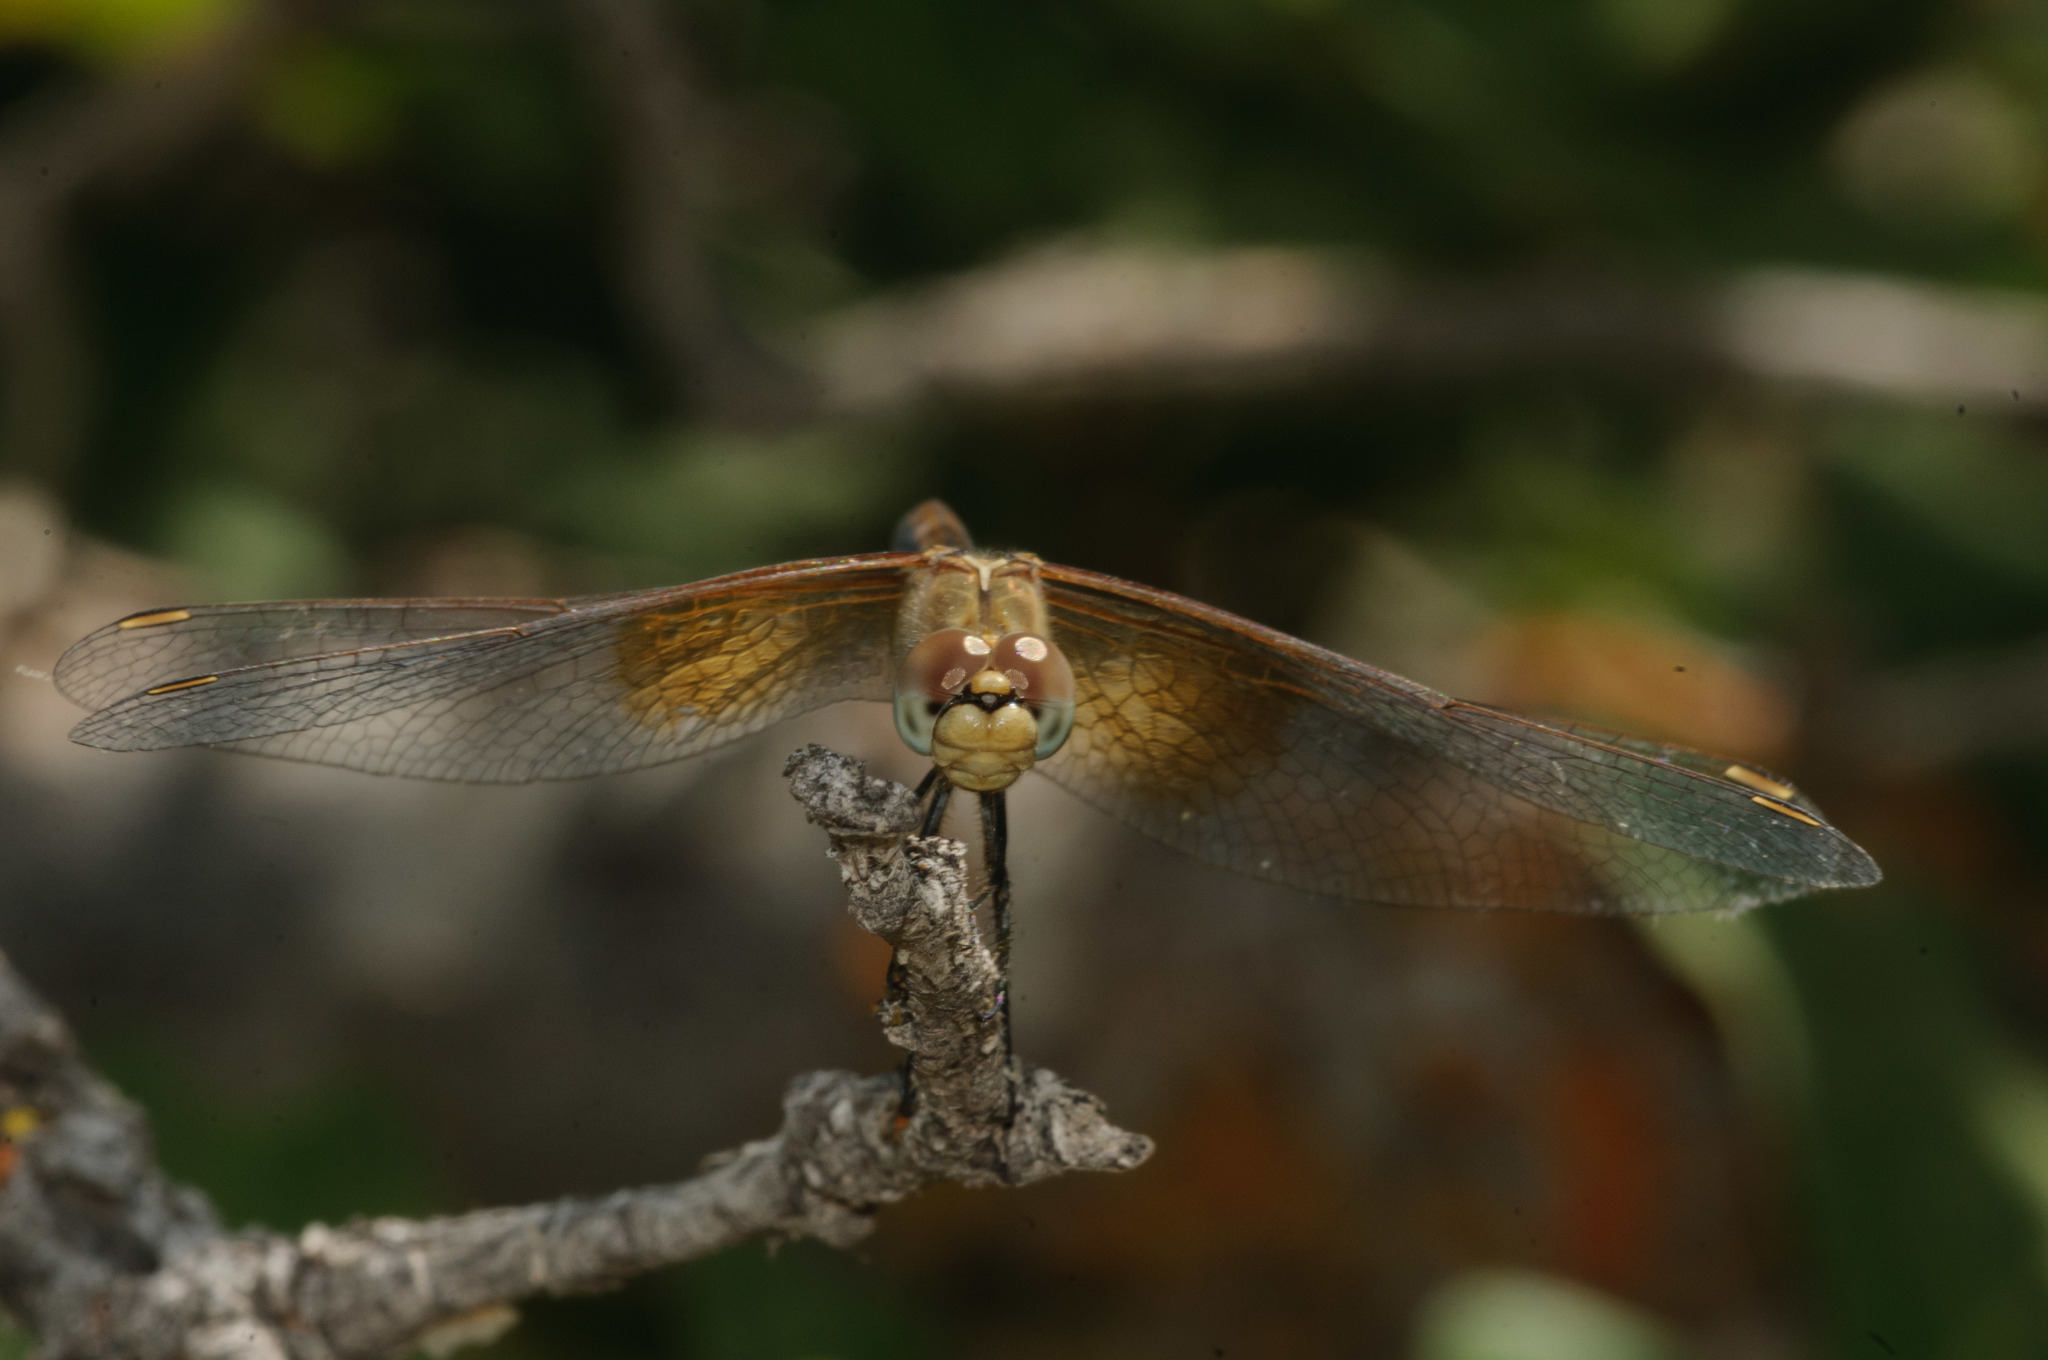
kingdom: Animalia
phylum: Arthropoda
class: Insecta
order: Odonata
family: Libellulidae
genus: Sympetrum
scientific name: Sympetrum semicinctum
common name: Band-winged meadowhawk
